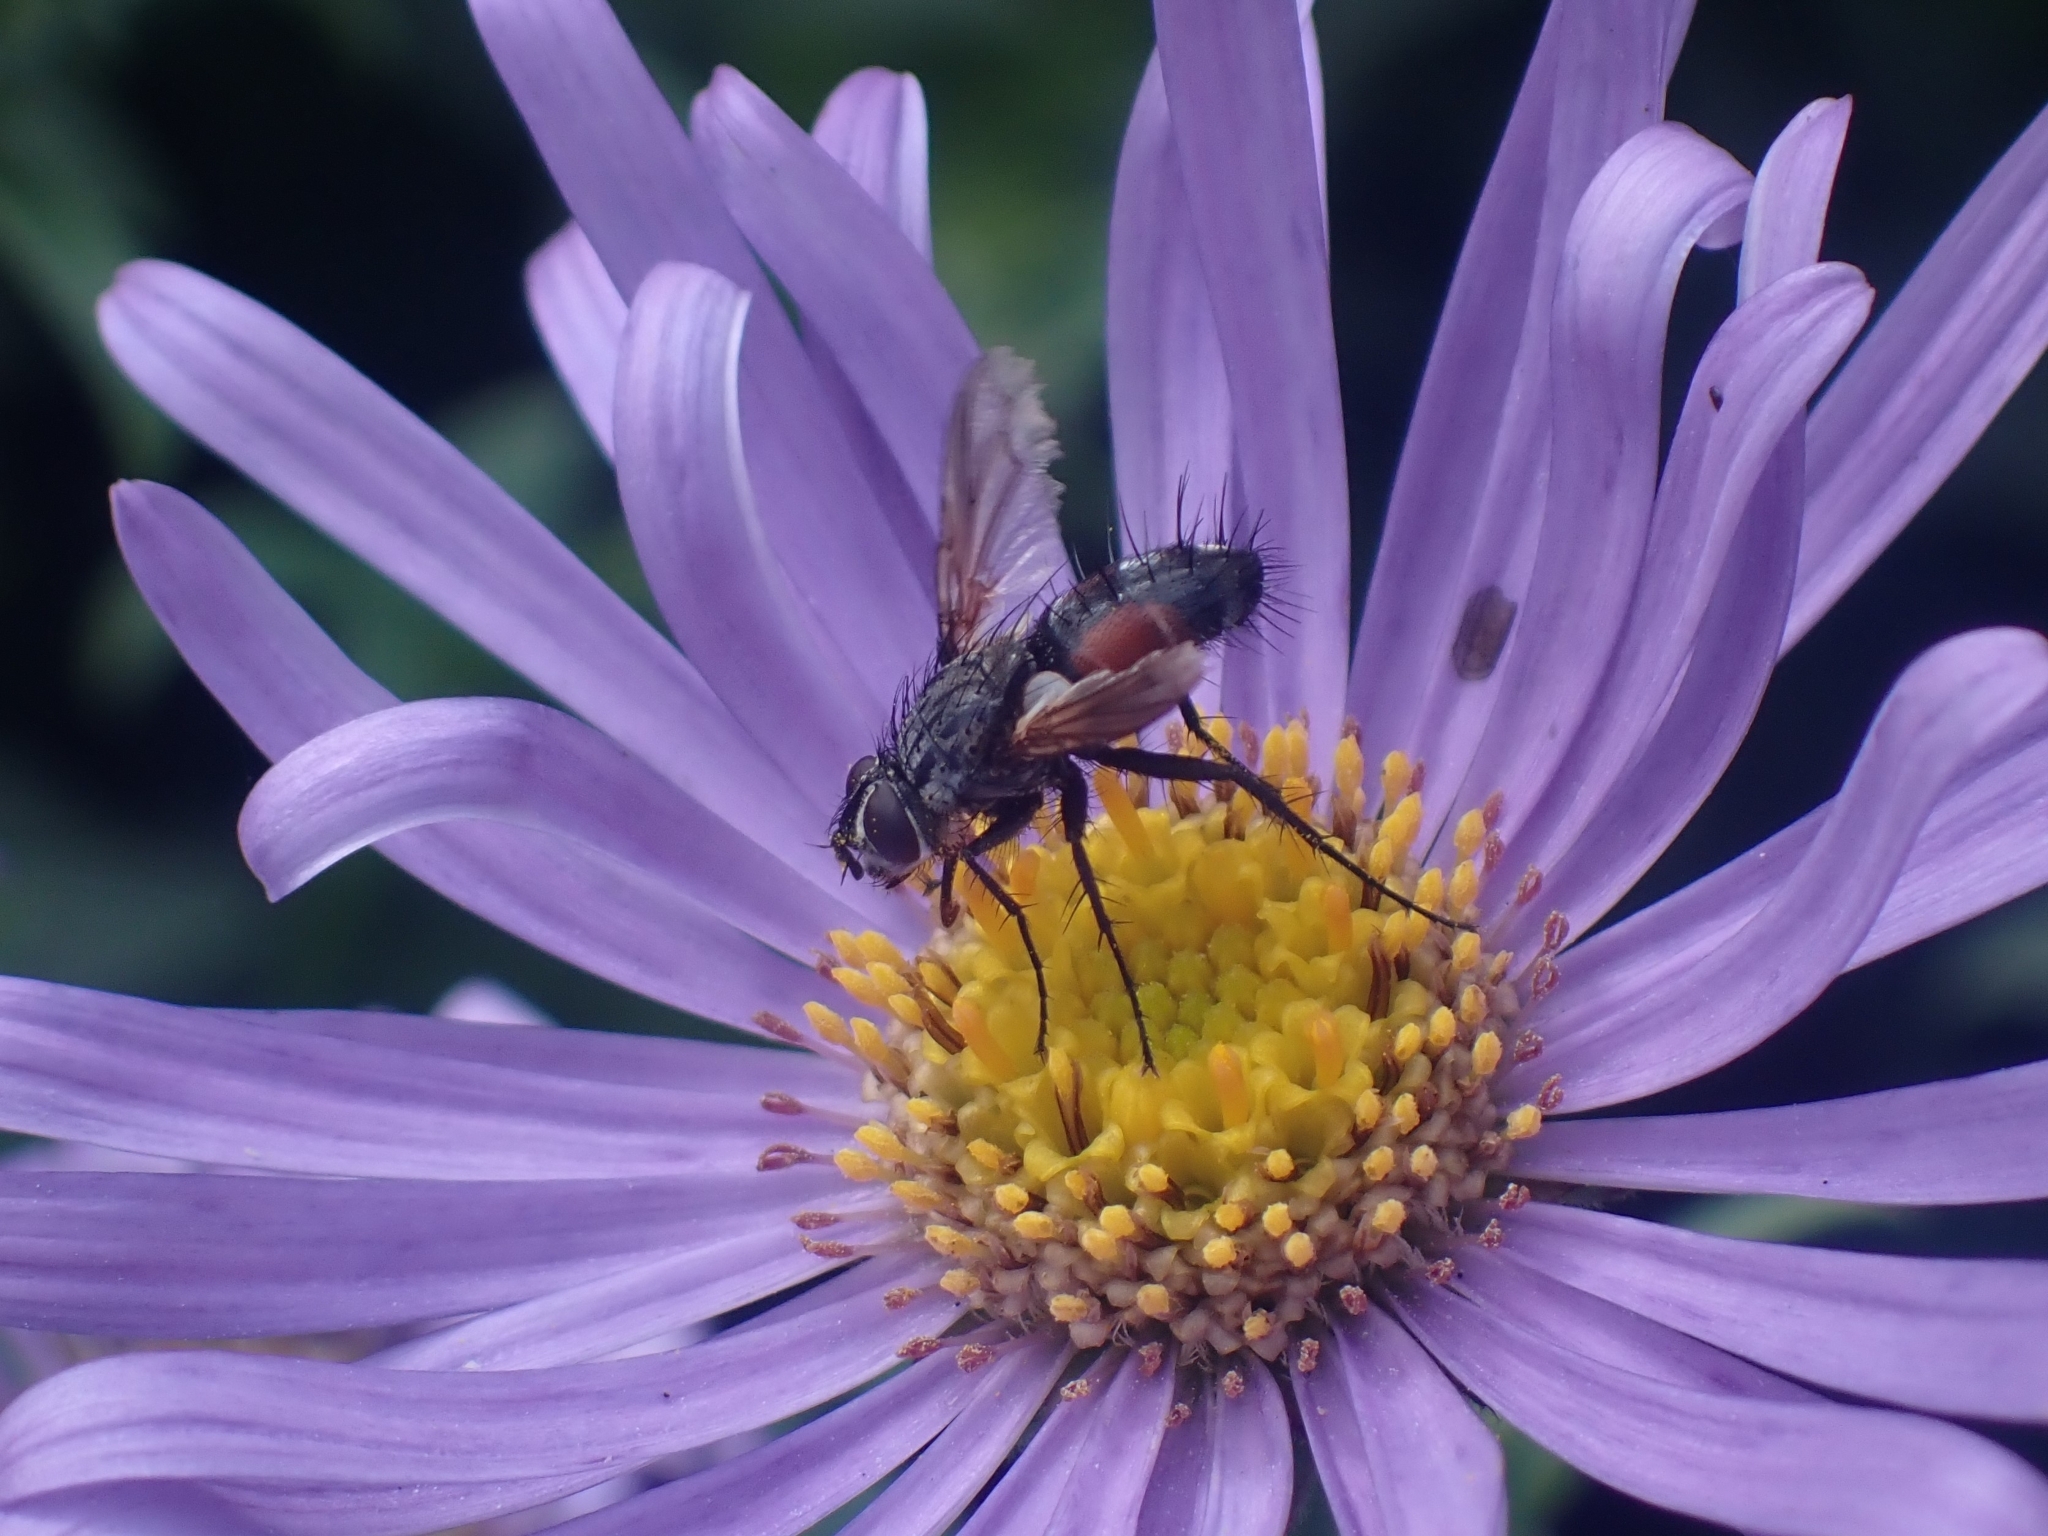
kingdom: Animalia
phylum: Arthropoda
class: Insecta
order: Diptera
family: Tachinidae
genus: Eriothrix
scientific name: Eriothrix rufomaculatus
